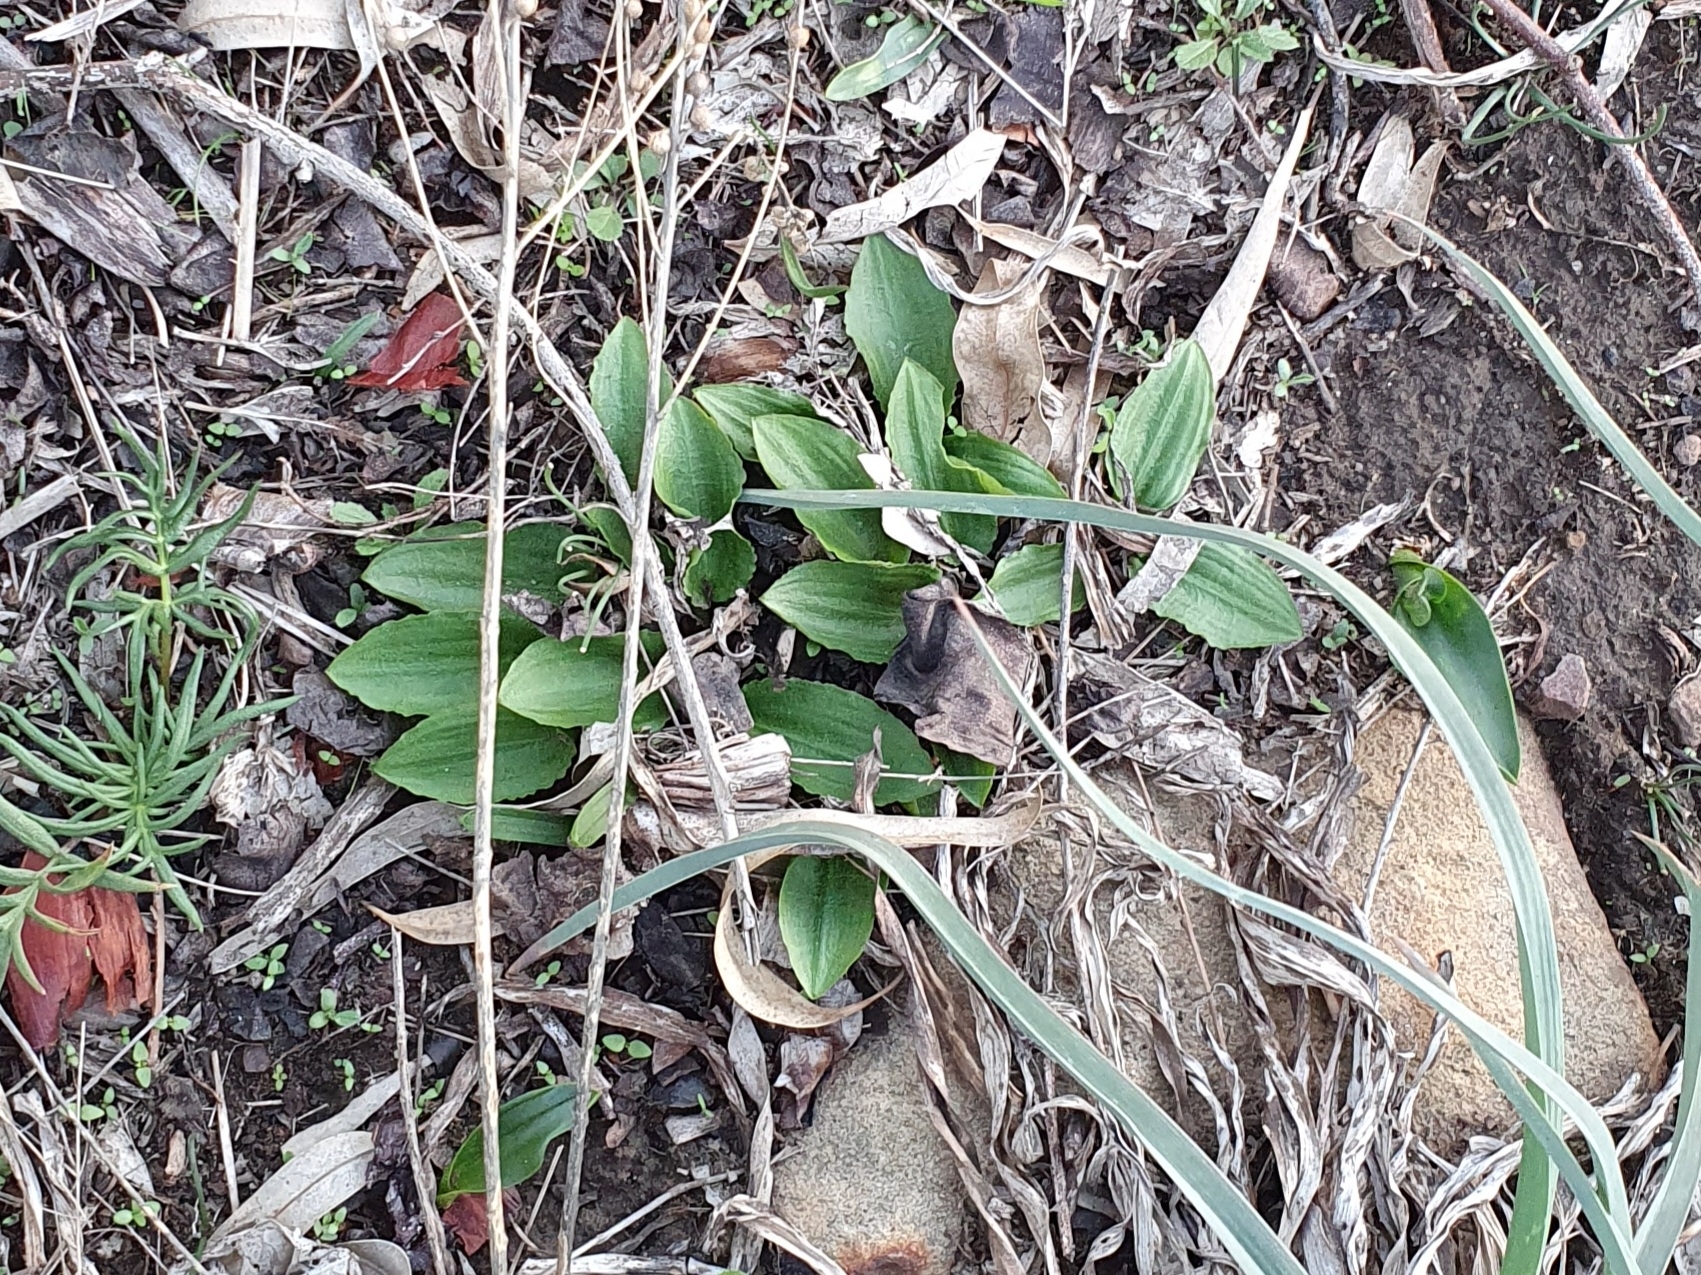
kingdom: Plantae
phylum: Tracheophyta
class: Liliopsida
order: Alismatales
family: Araceae
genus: Ambrosina
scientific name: Ambrosina bassii
